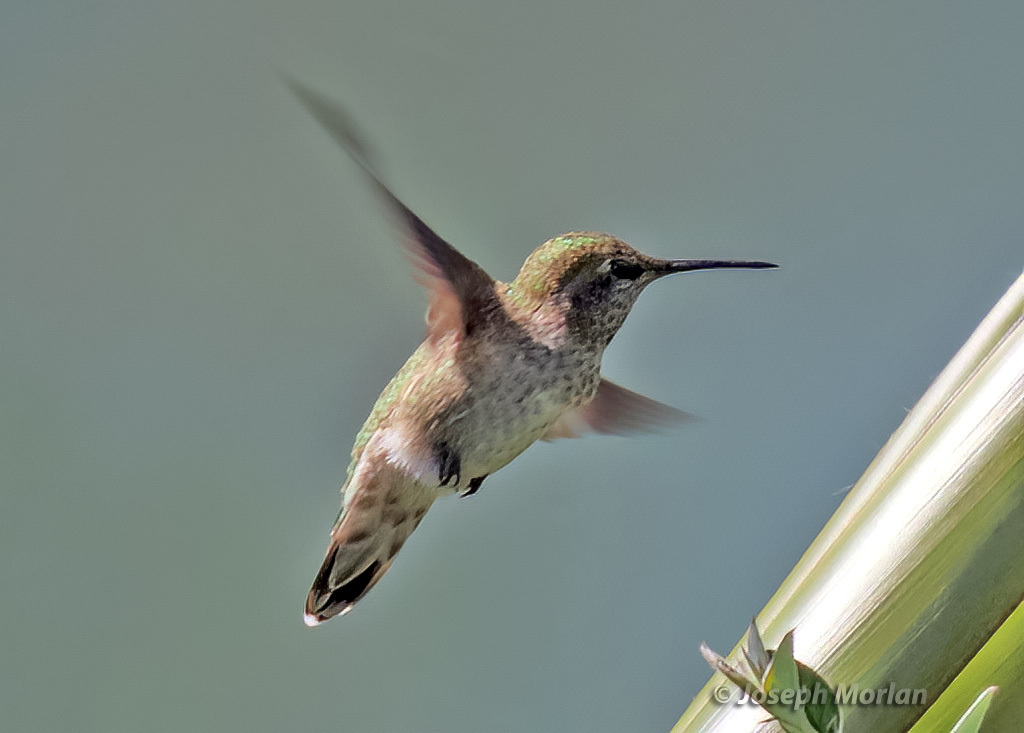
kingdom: Animalia
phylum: Chordata
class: Aves
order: Apodiformes
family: Trochilidae
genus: Calypte
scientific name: Calypte anna
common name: Anna's hummingbird
